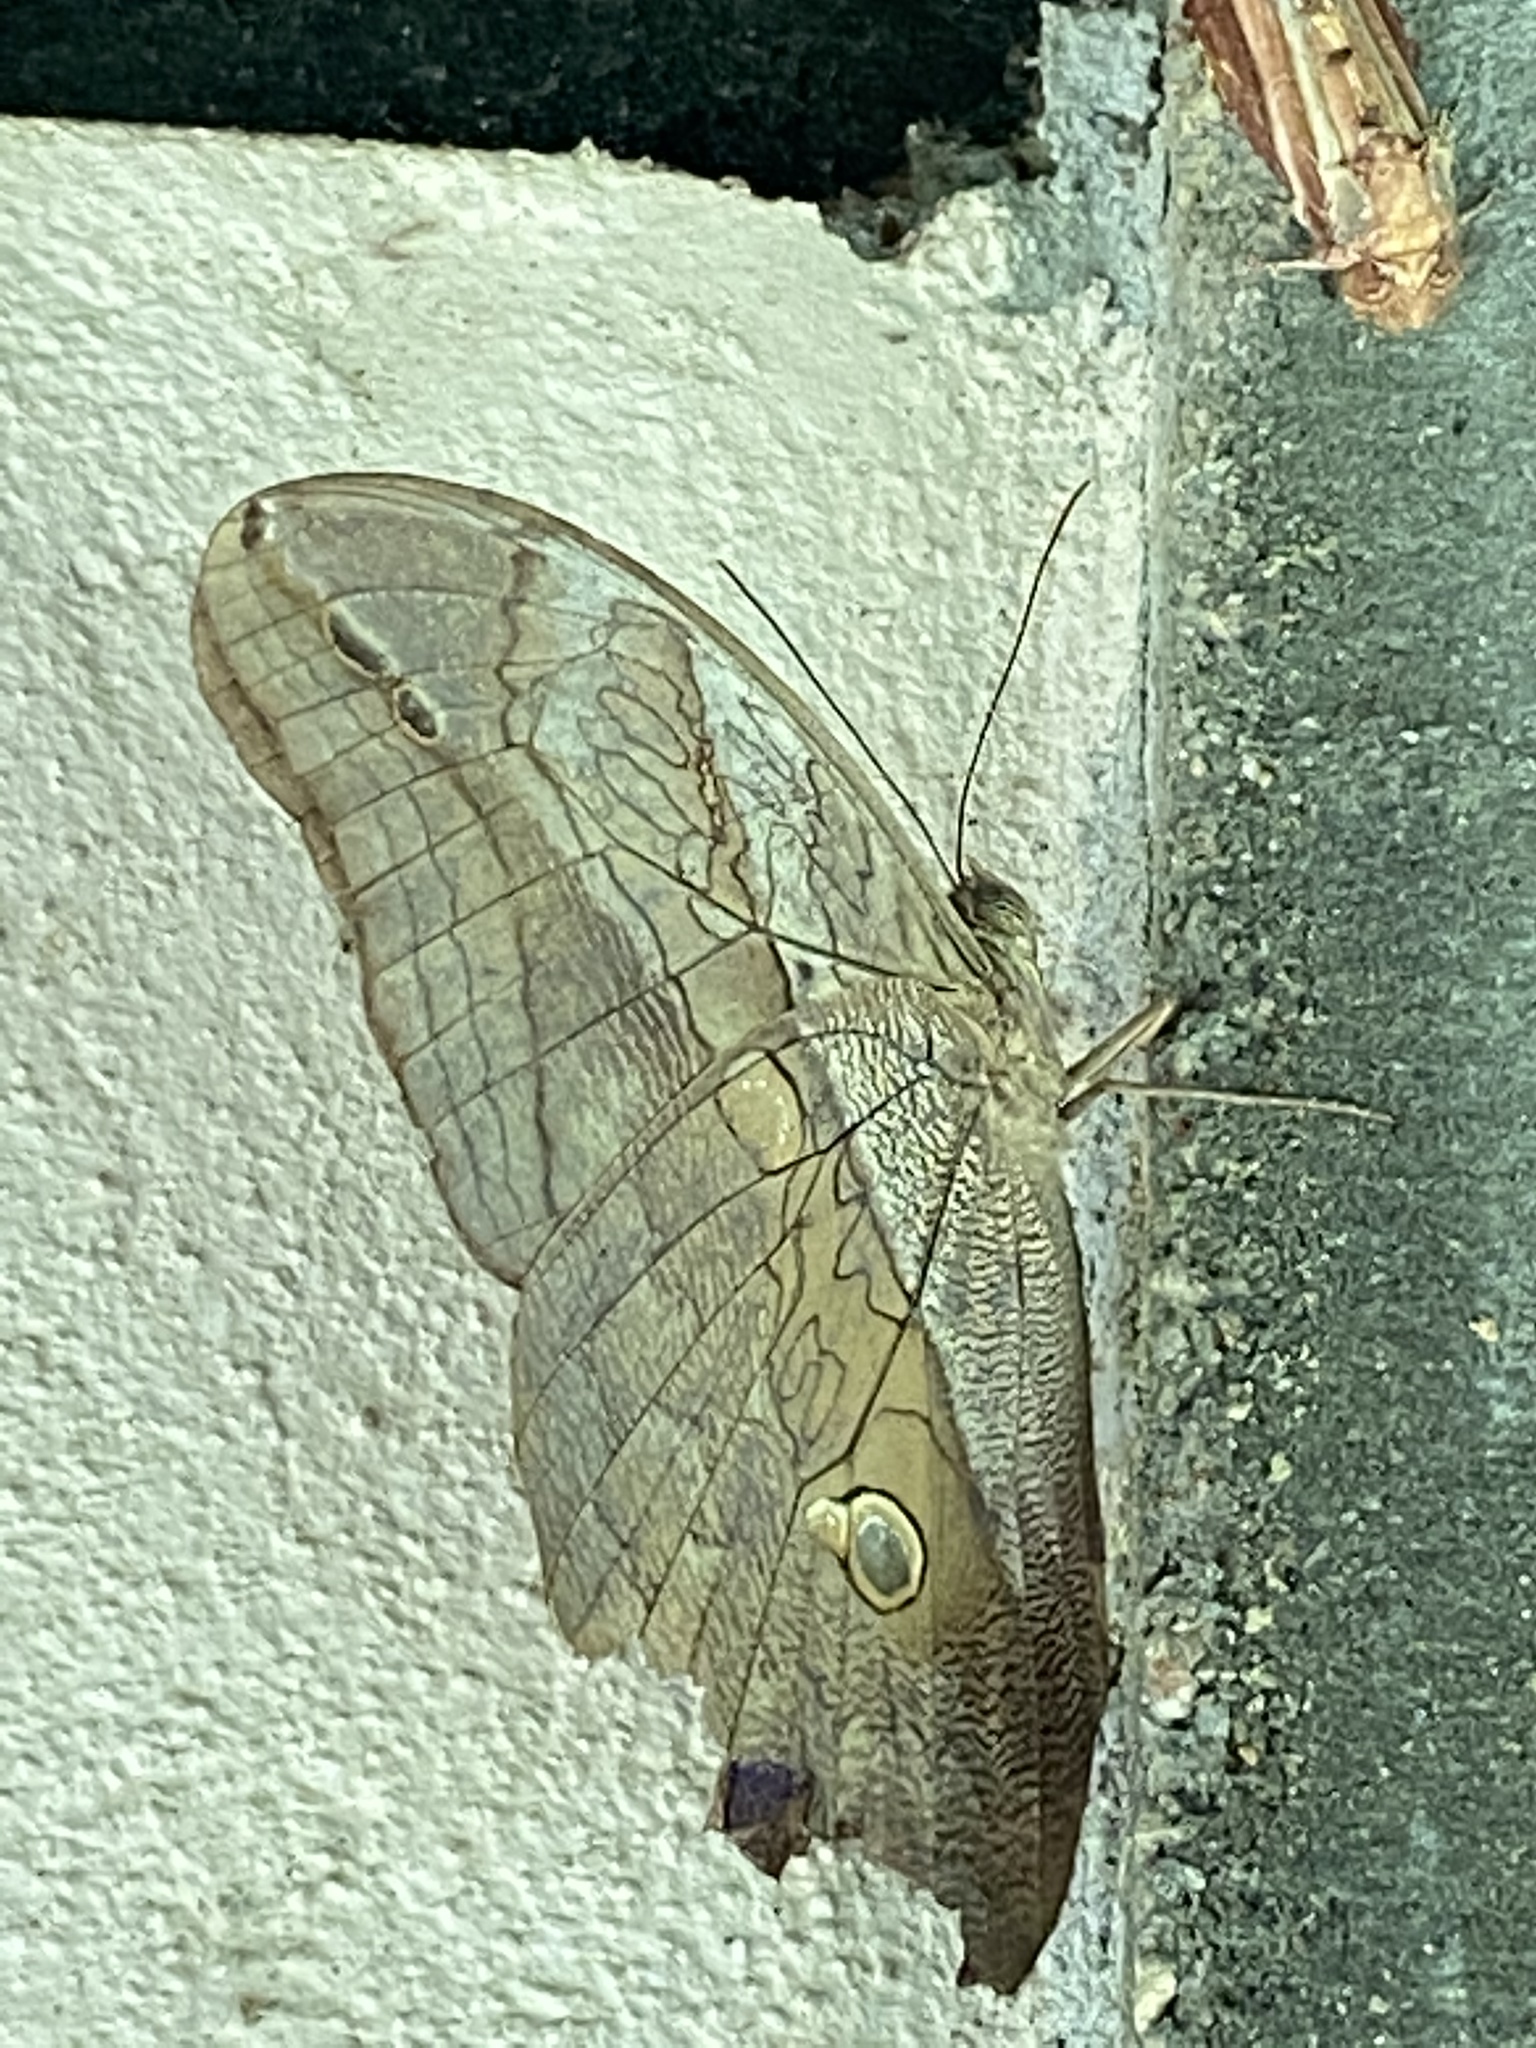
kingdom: Animalia
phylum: Arthropoda
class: Insecta
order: Lepidoptera
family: Nymphalidae
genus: Eryphanis
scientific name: Eryphanis polyxena
